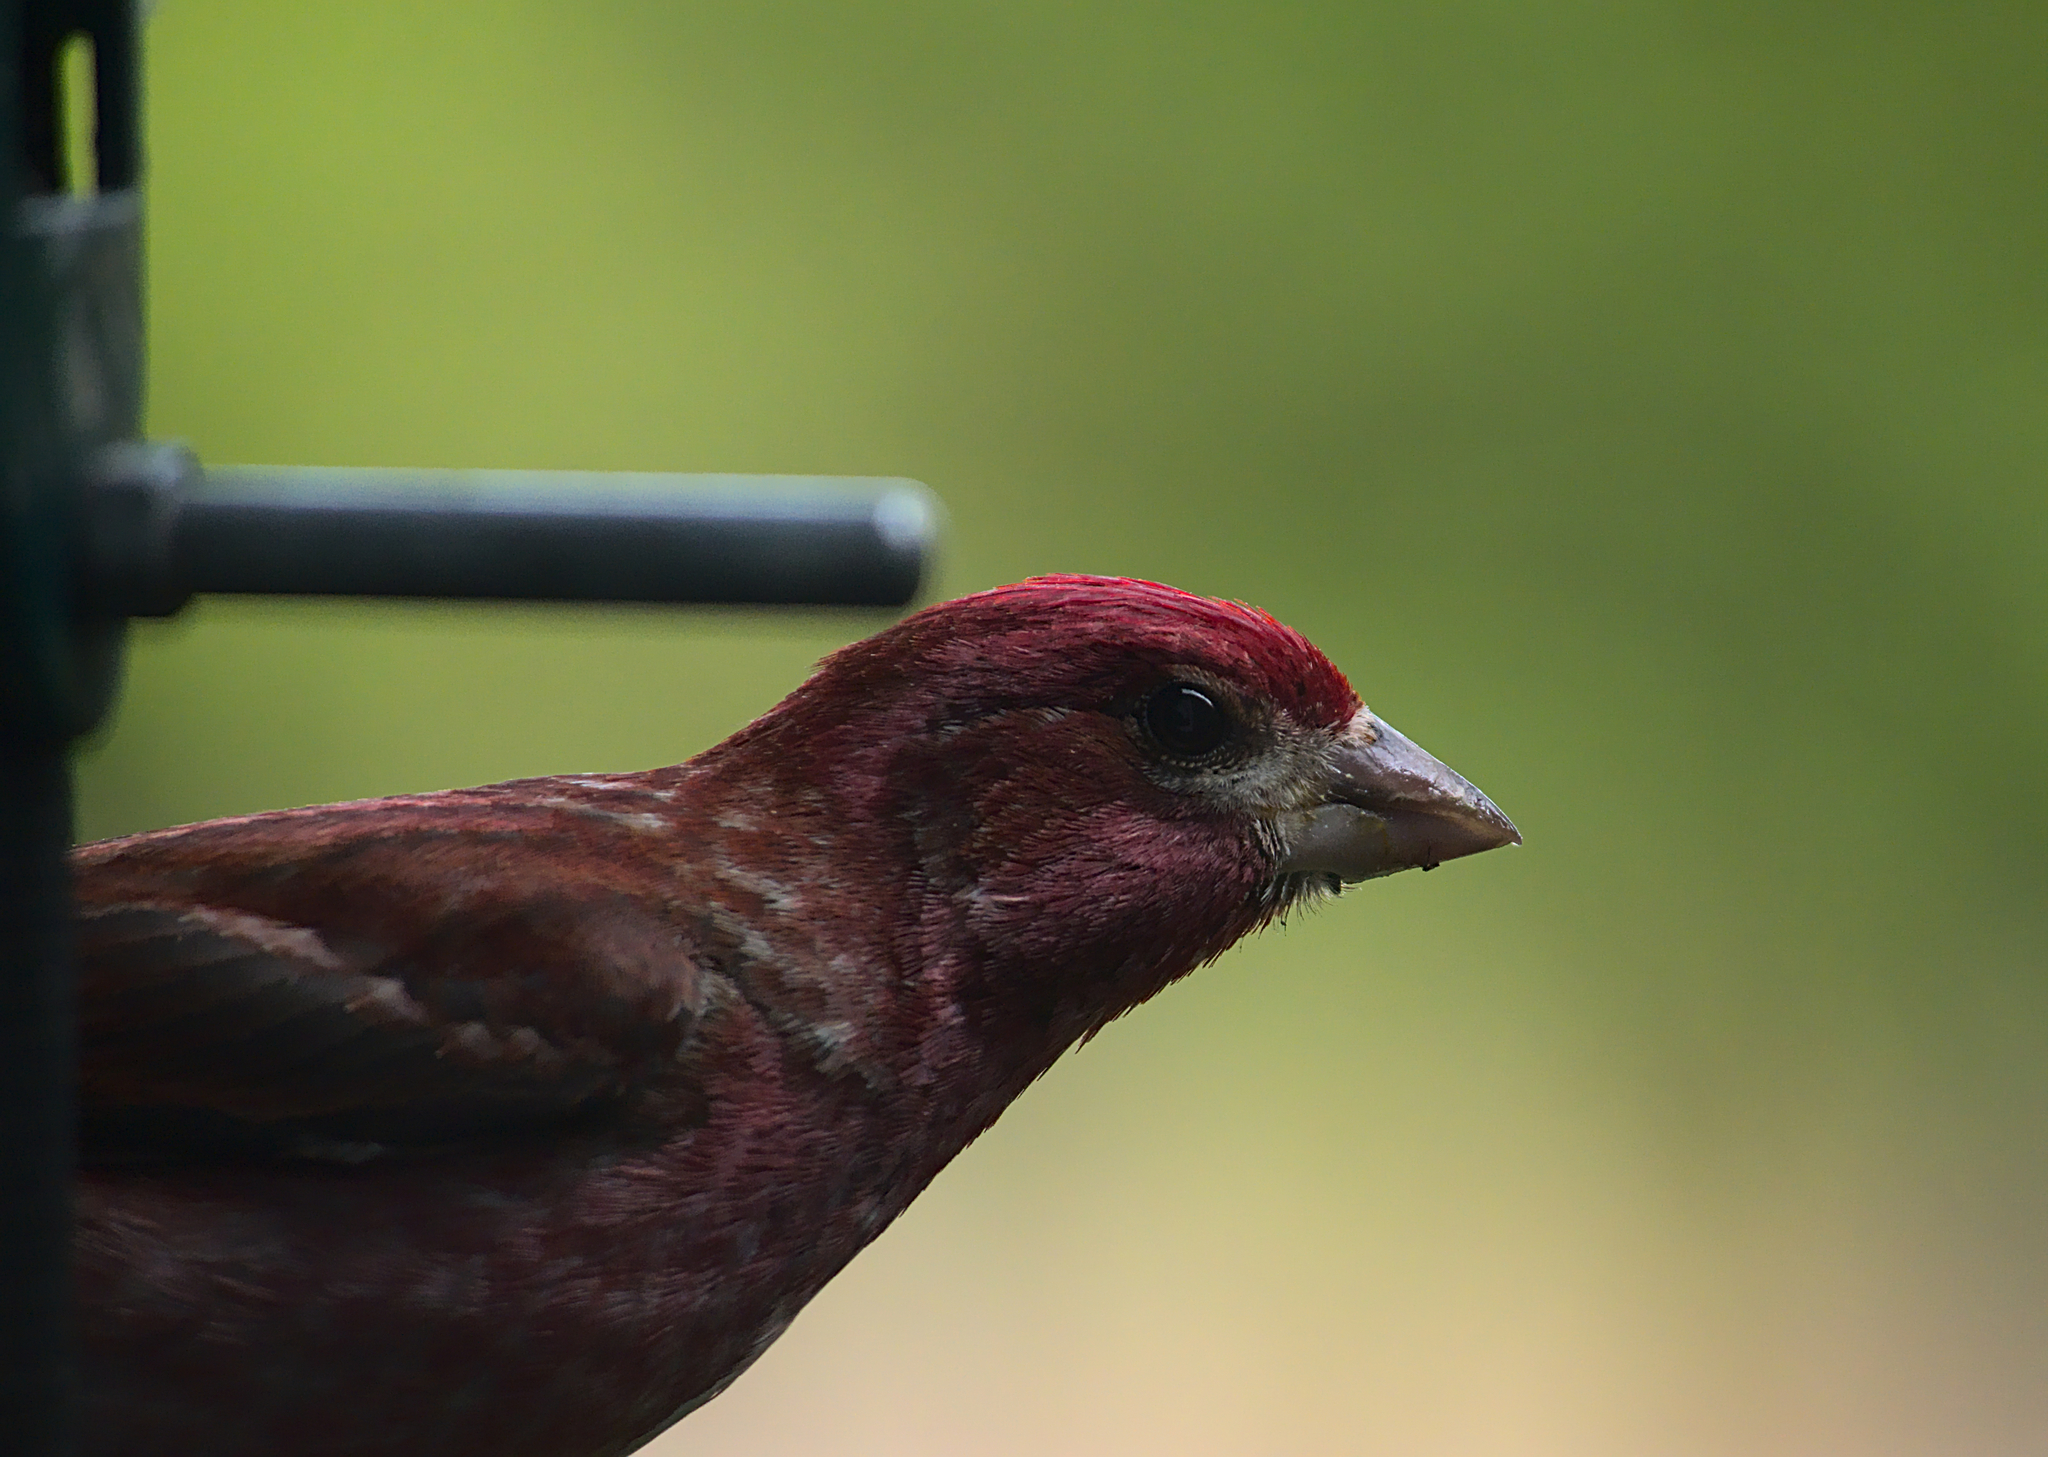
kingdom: Animalia
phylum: Chordata
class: Aves
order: Passeriformes
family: Fringillidae
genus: Haemorhous
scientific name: Haemorhous purpureus
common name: Purple finch
